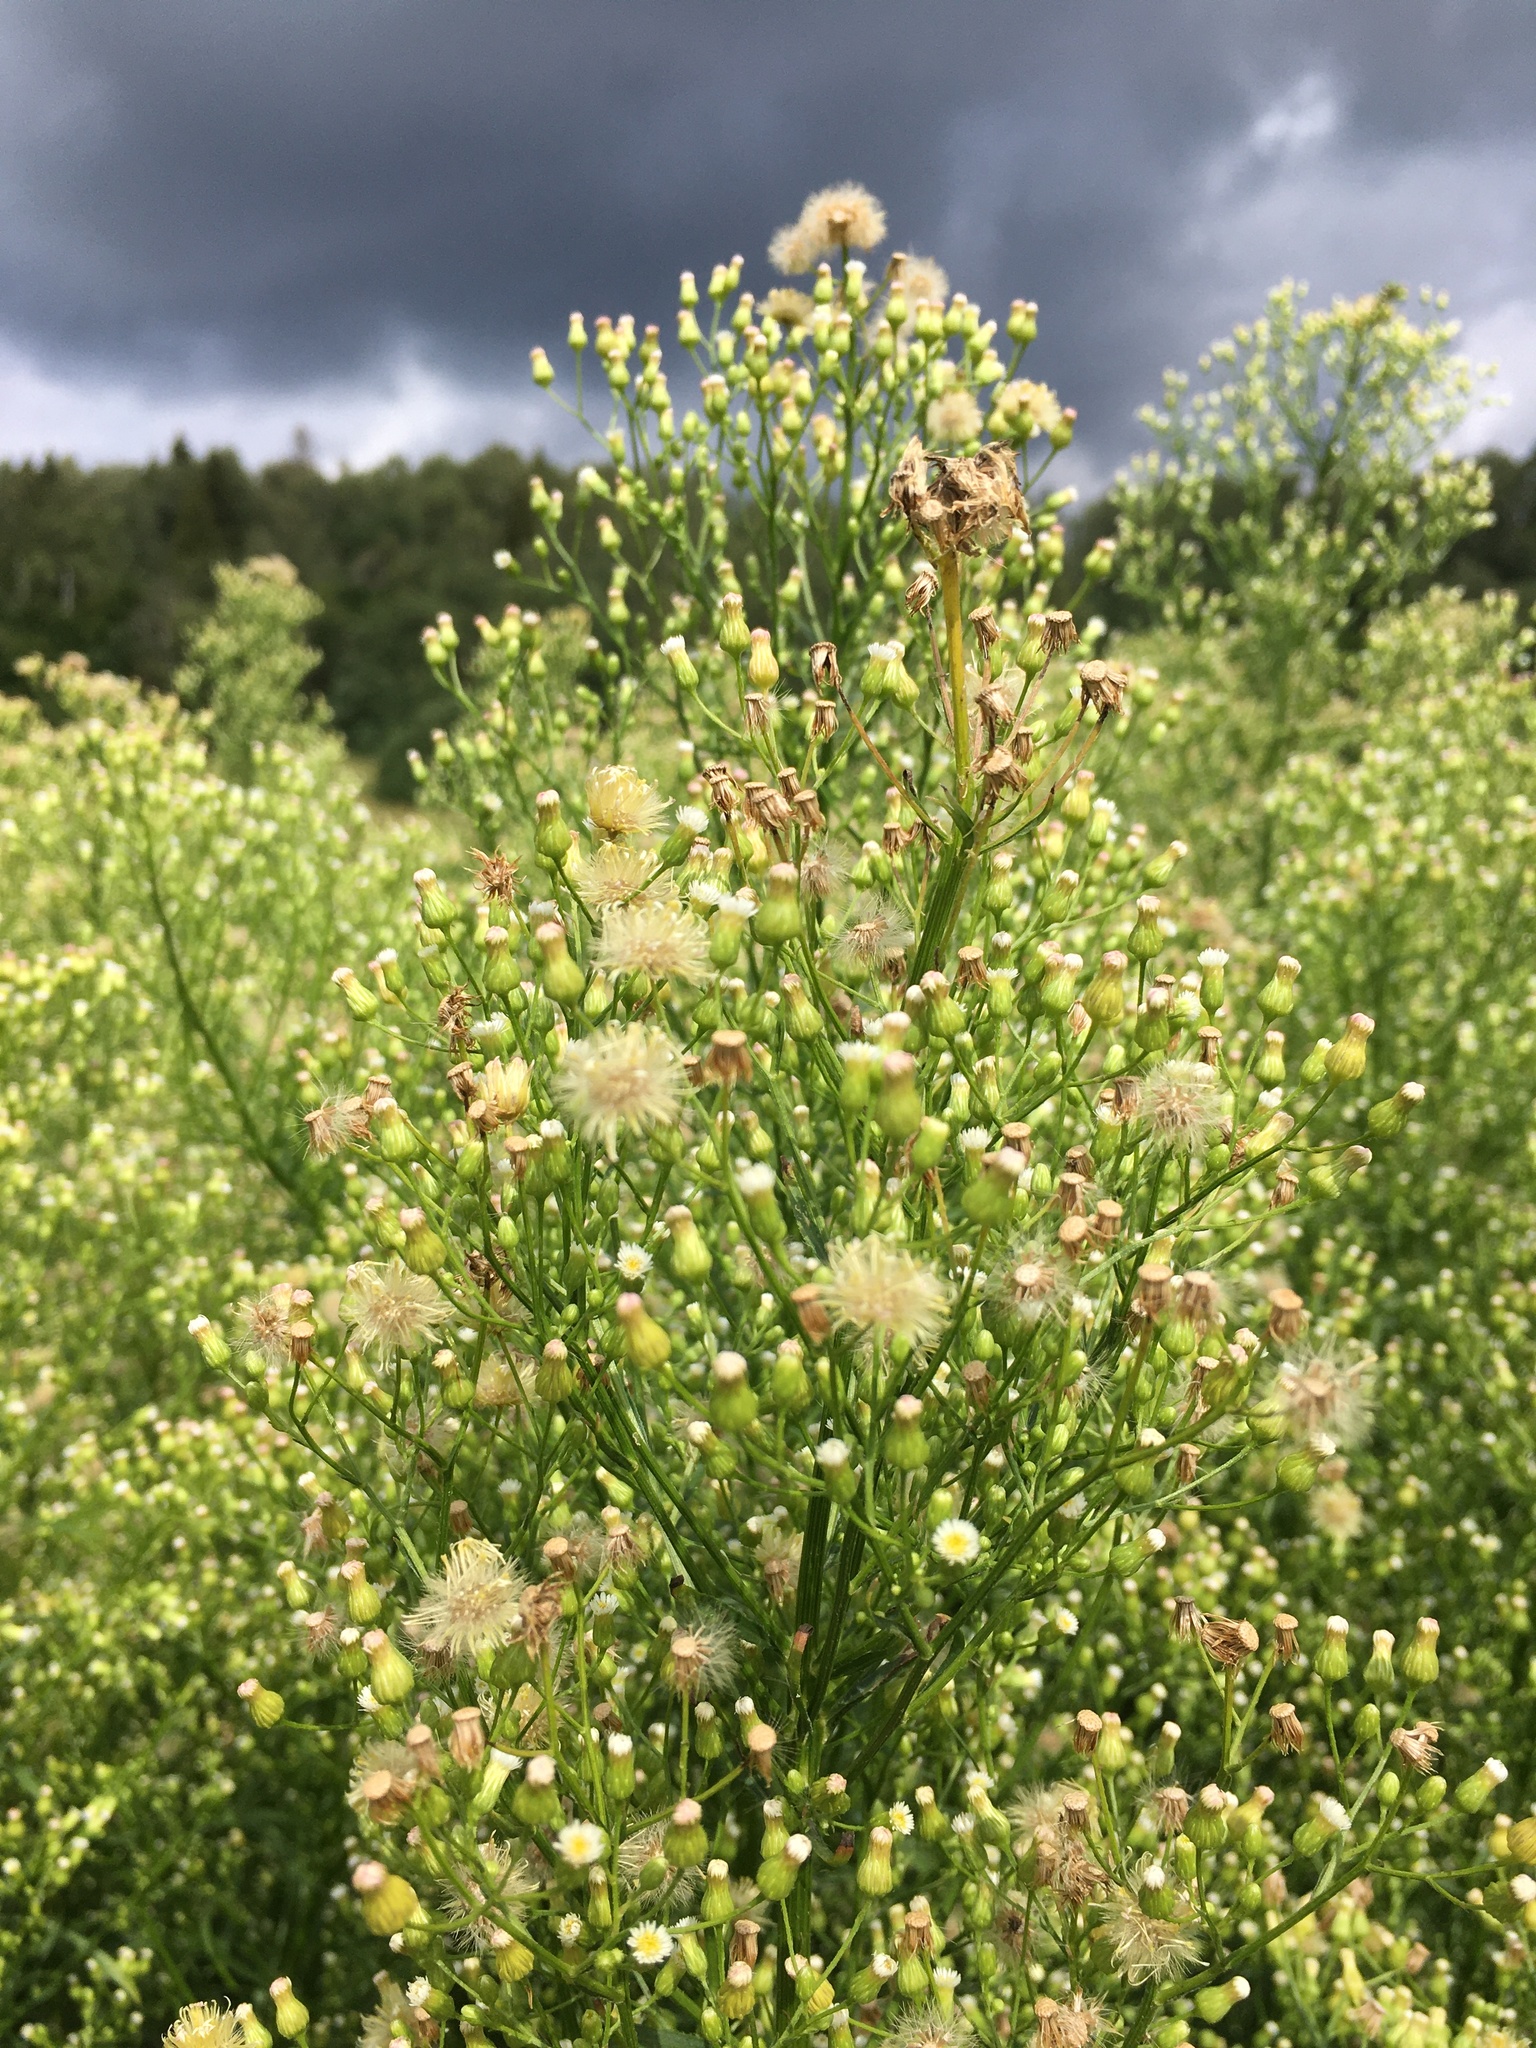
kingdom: Plantae
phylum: Tracheophyta
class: Magnoliopsida
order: Asterales
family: Asteraceae
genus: Erigeron
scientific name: Erigeron canadensis
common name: Canadian fleabane
